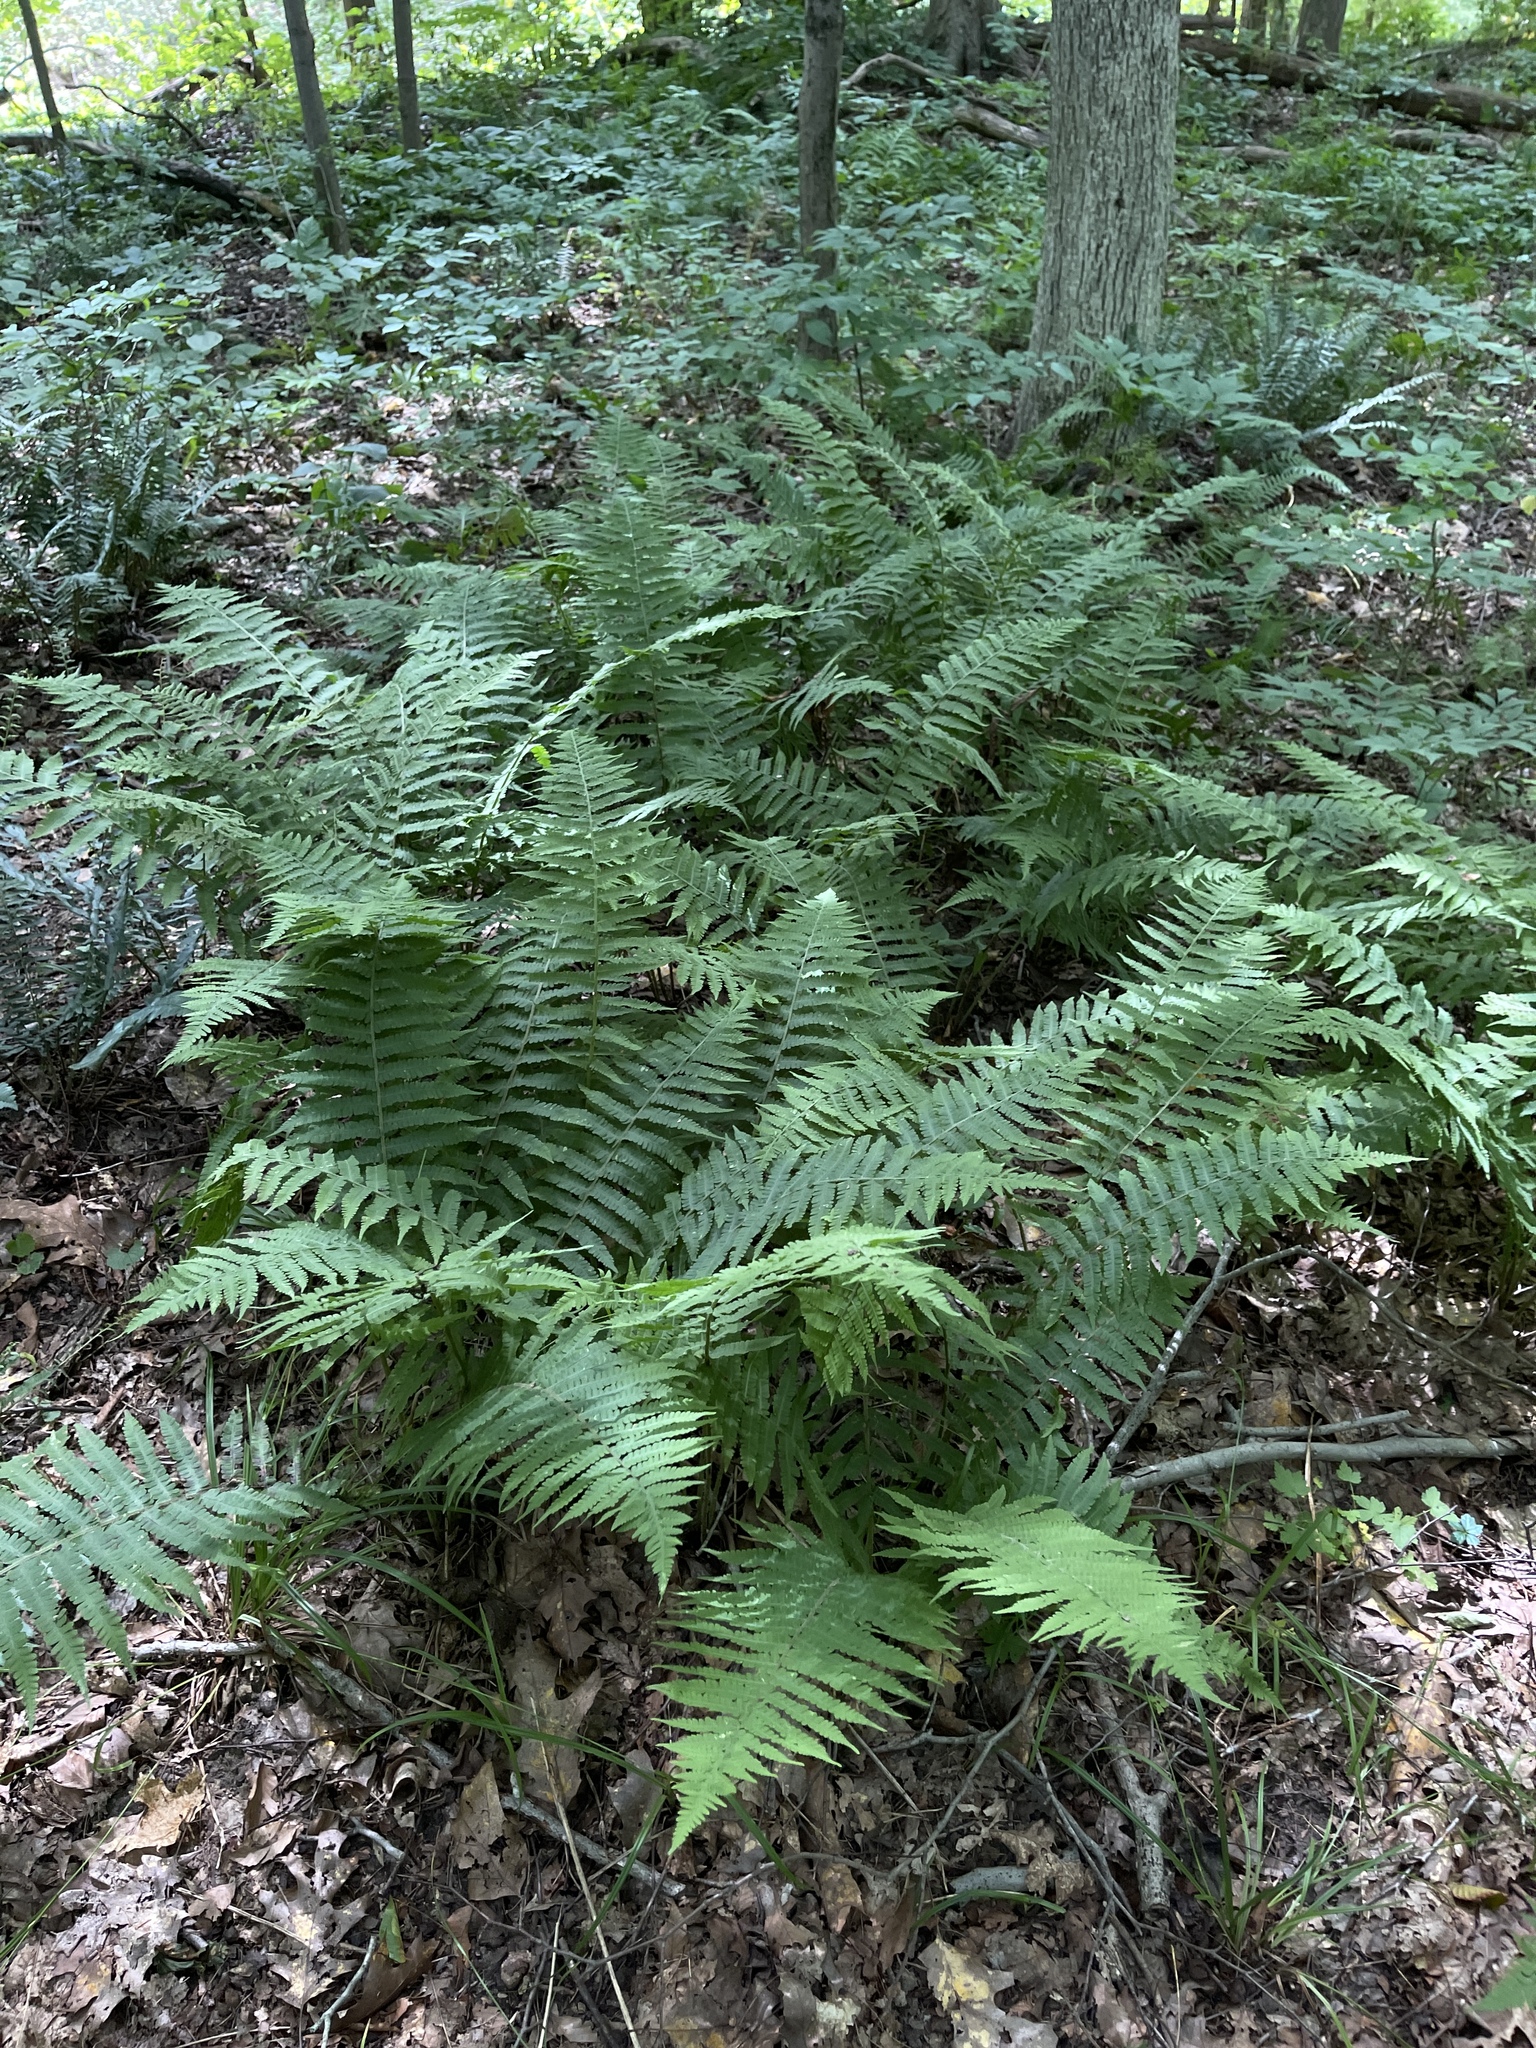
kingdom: Plantae
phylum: Tracheophyta
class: Polypodiopsida
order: Polypodiales
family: Athyriaceae
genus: Deparia
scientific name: Deparia acrostichoides
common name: Silver false spleenwort
